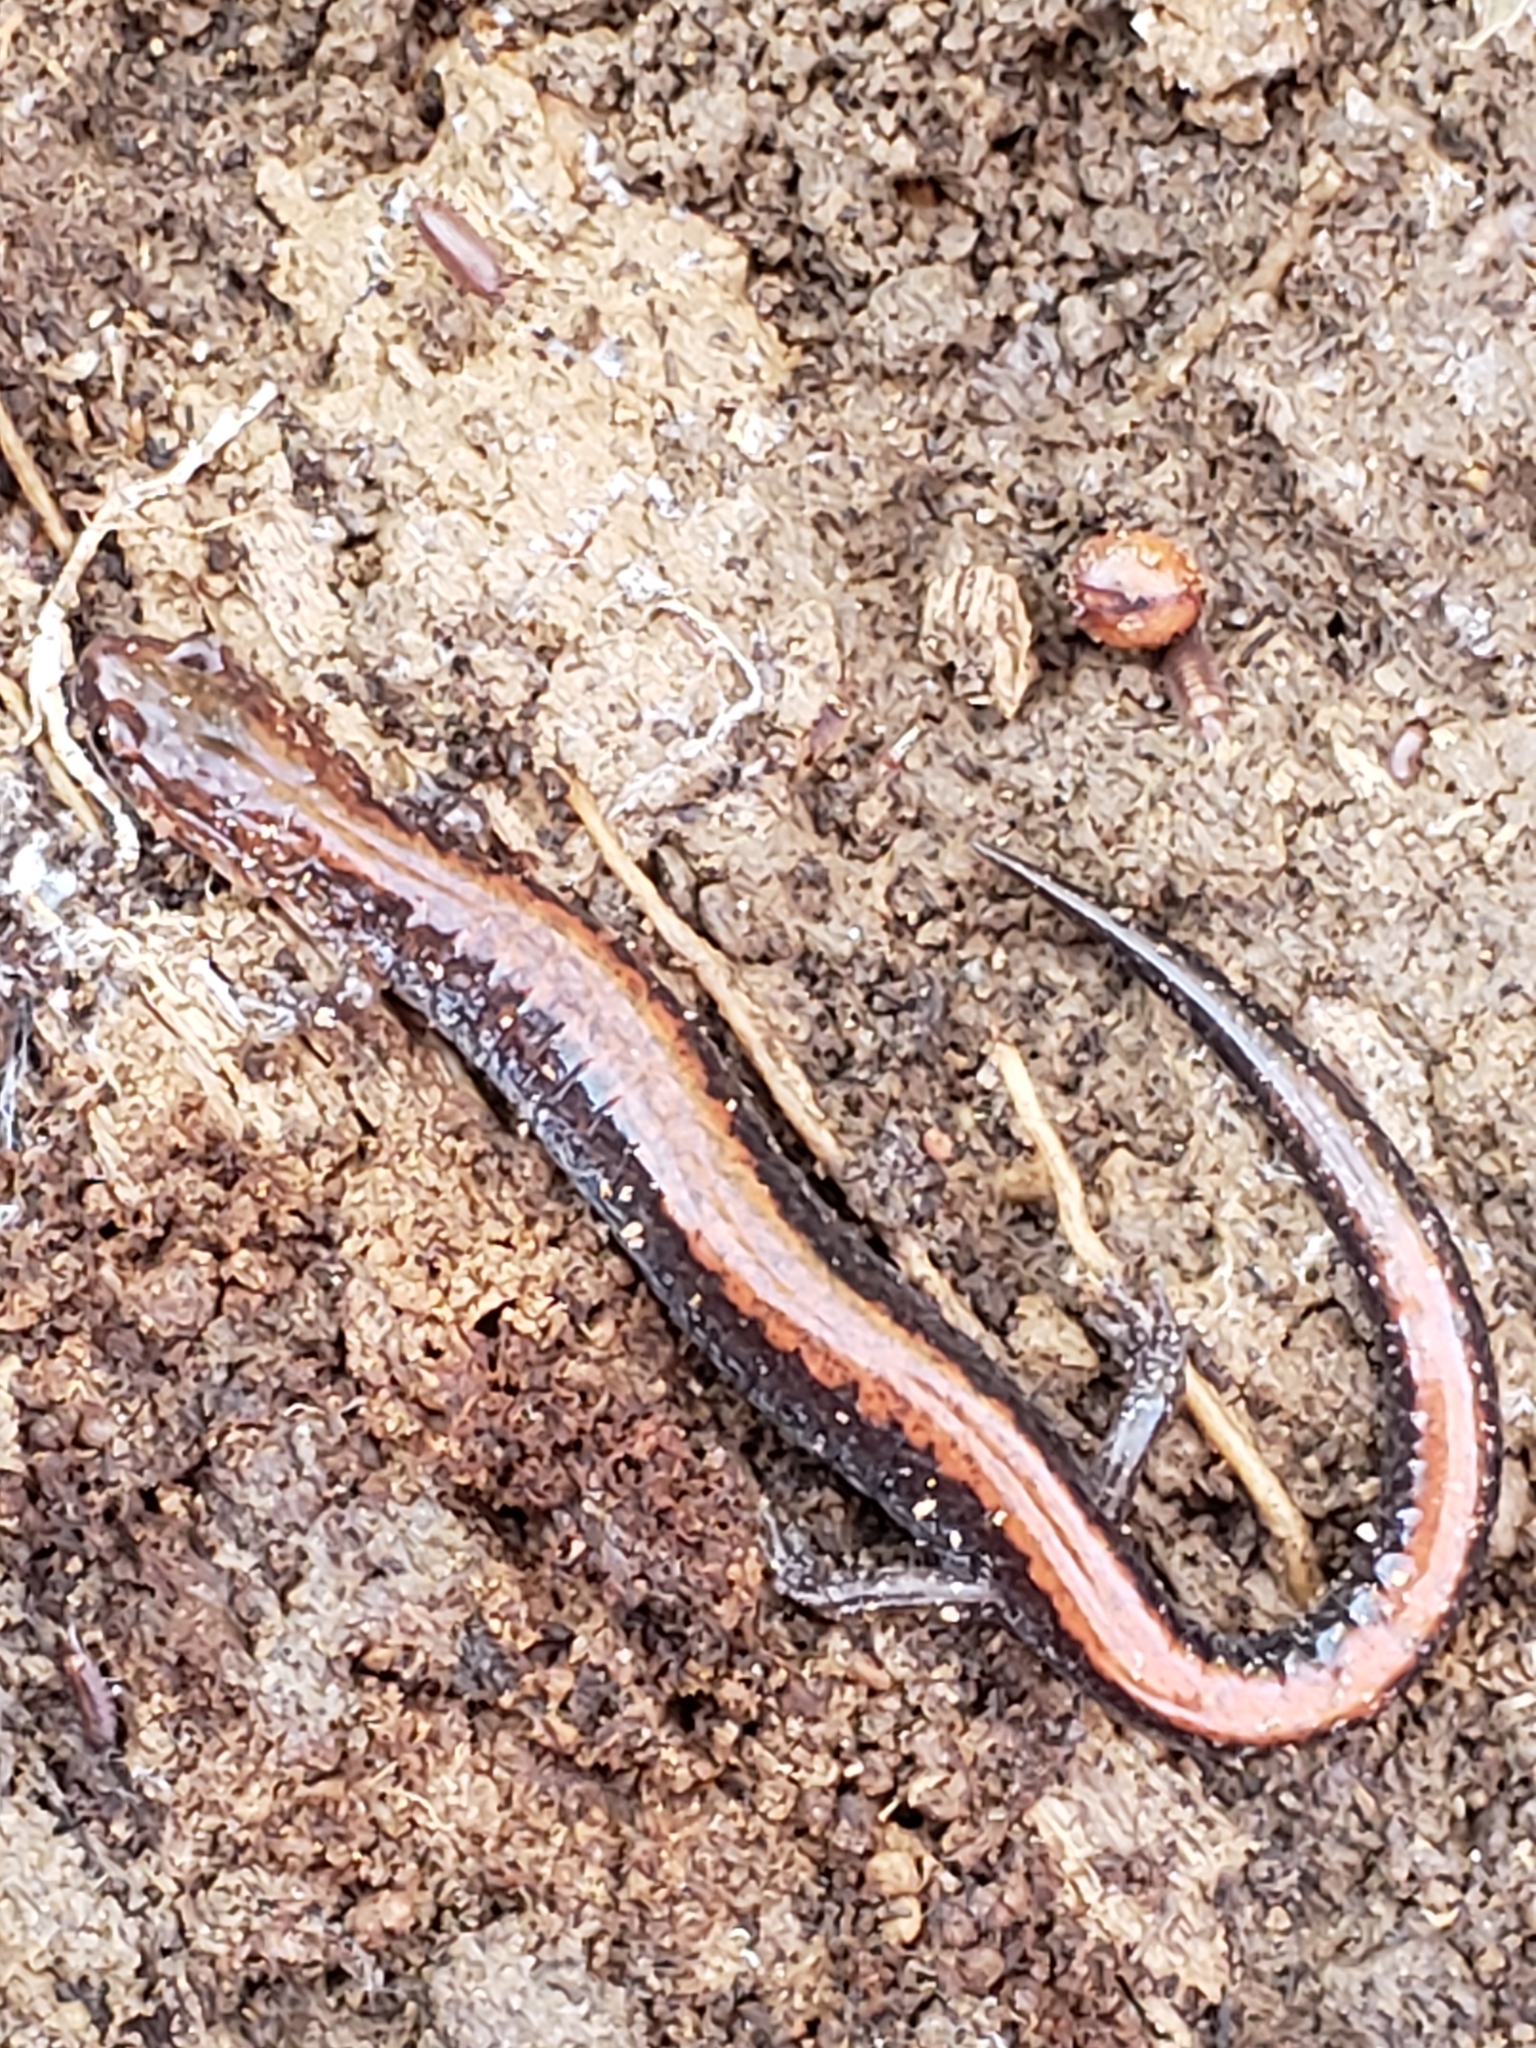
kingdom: Animalia
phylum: Chordata
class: Amphibia
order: Caudata
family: Plethodontidae
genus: Plethodon
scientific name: Plethodon cinereus
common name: Redback salamander
